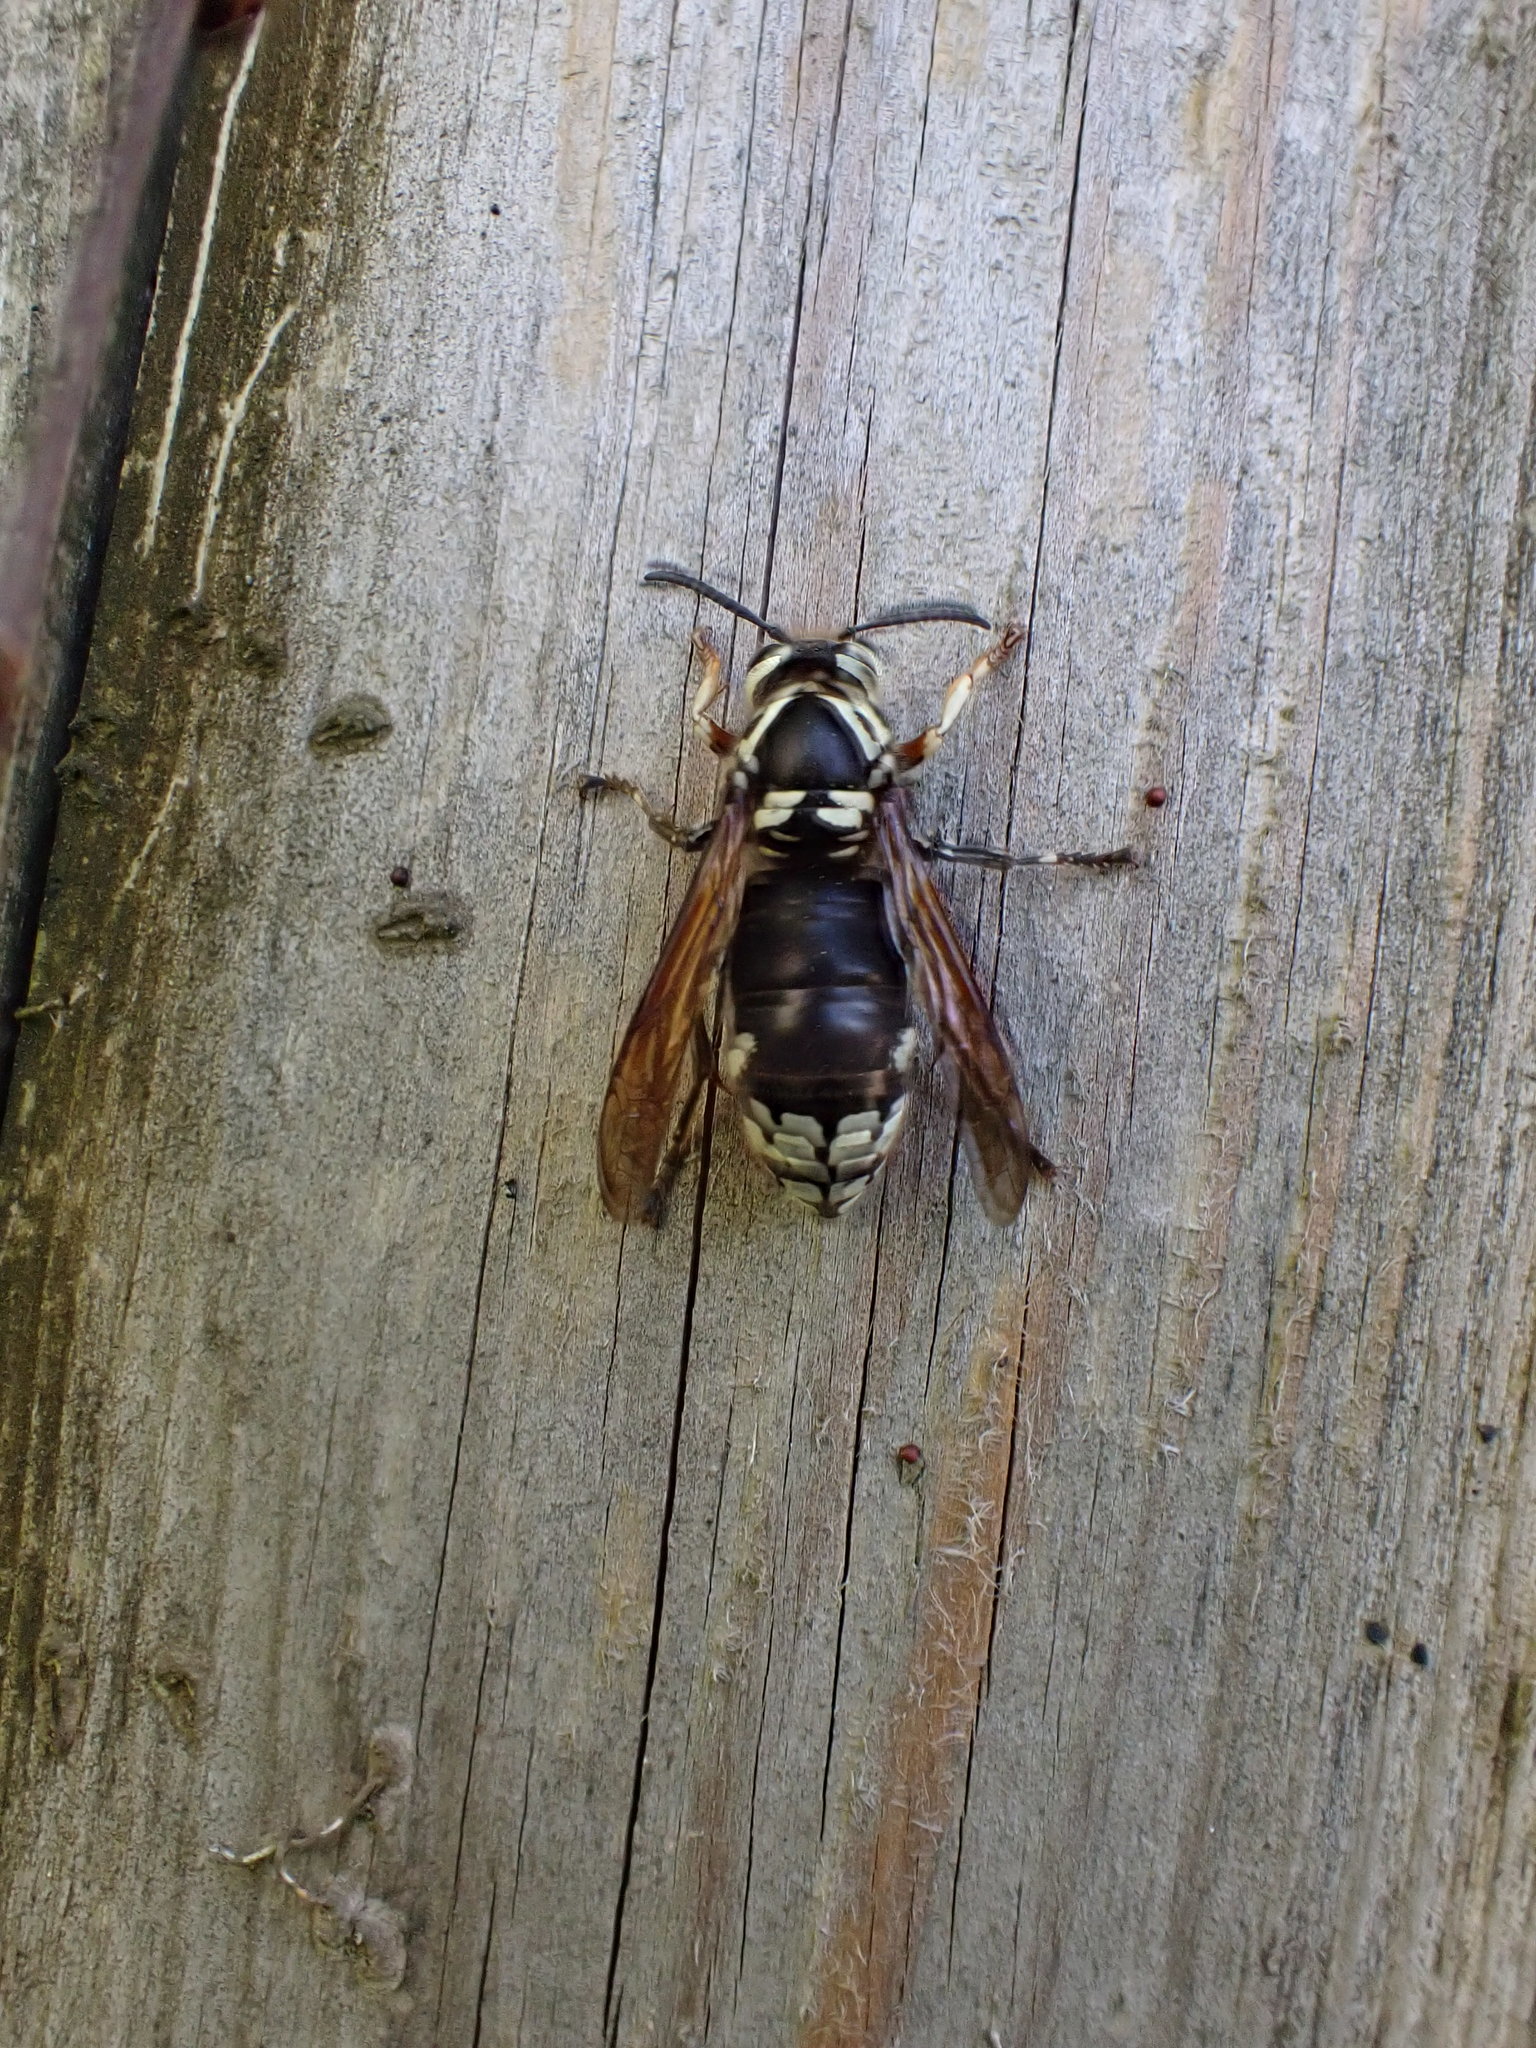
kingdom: Animalia
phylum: Arthropoda
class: Insecta
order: Hymenoptera
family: Vespidae
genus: Dolichovespula
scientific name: Dolichovespula maculata
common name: Bald-faced hornet
